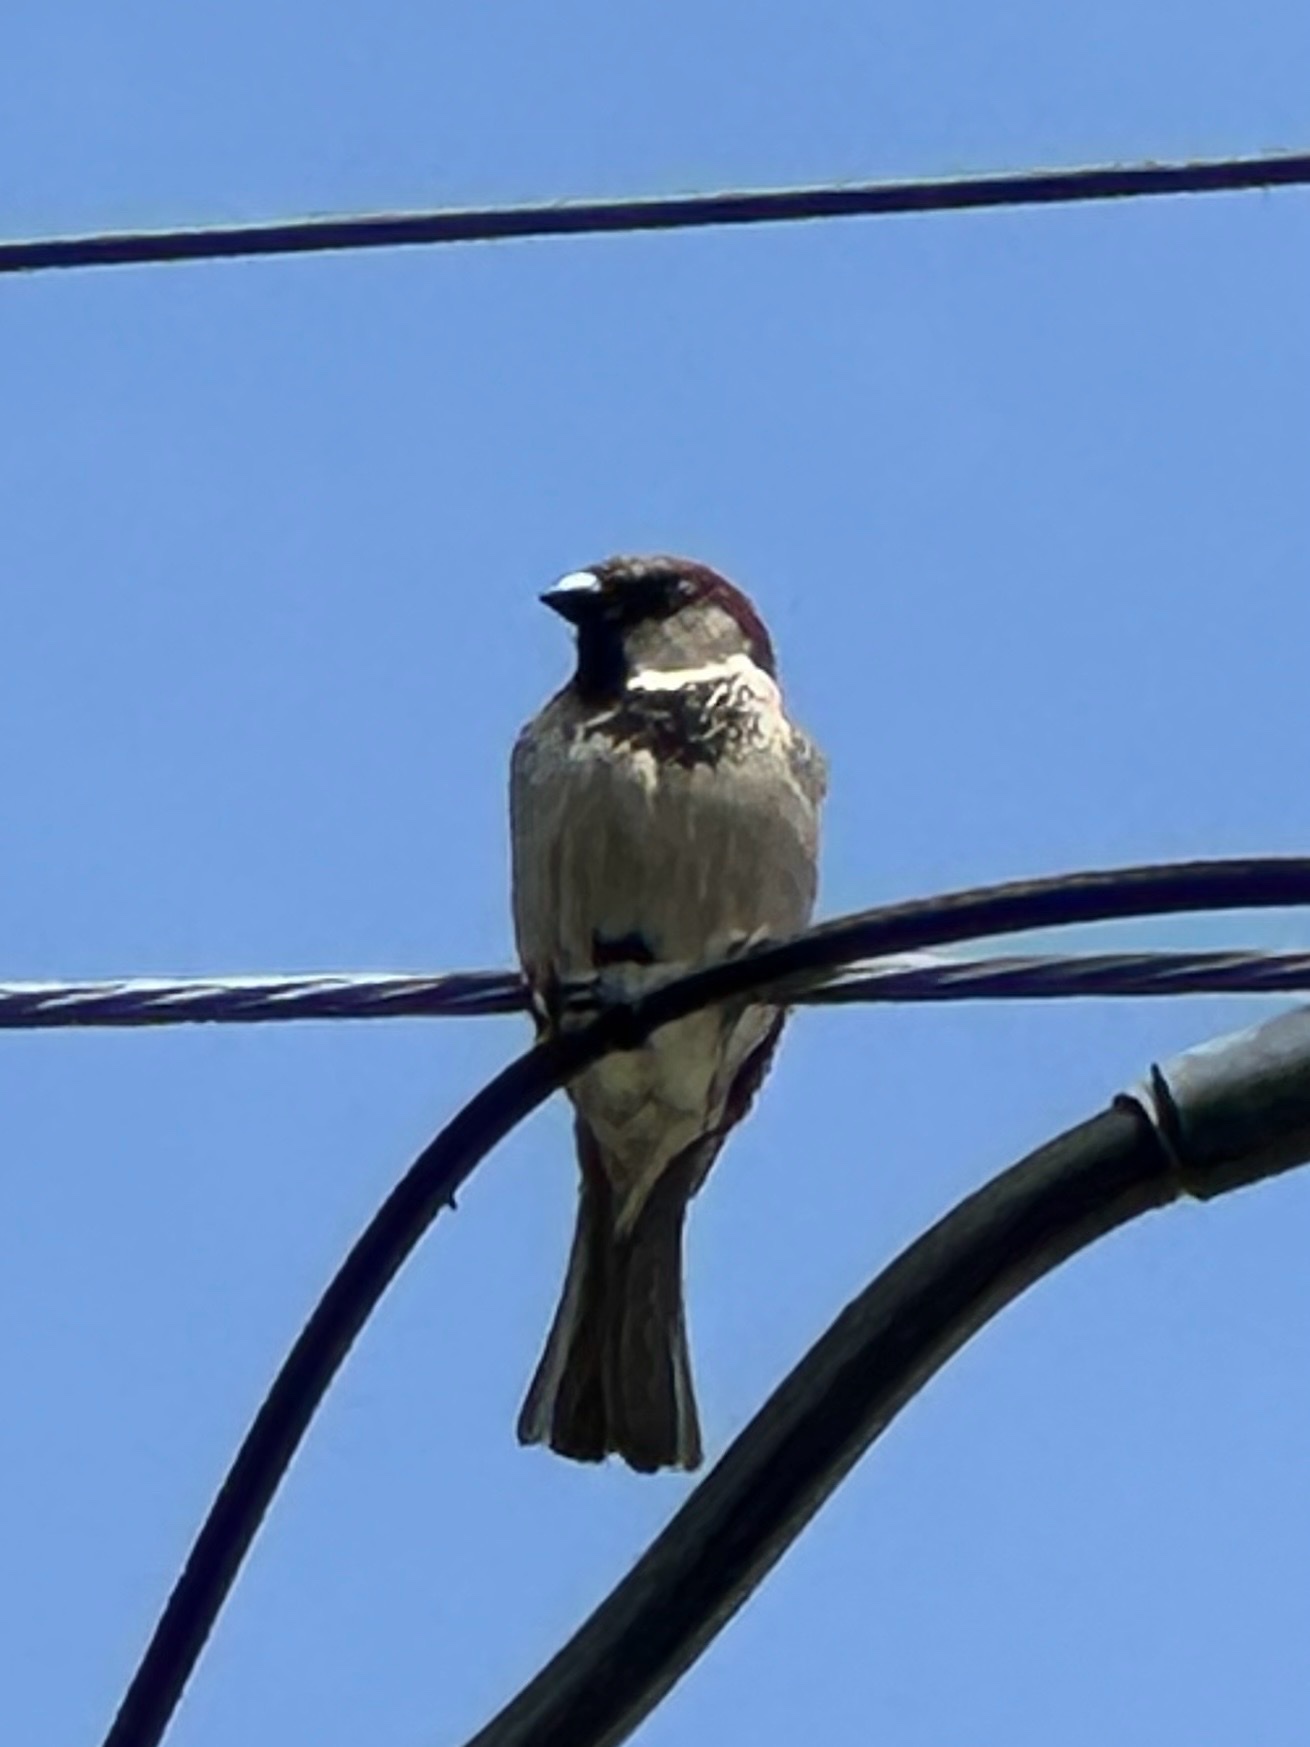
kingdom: Animalia
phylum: Chordata
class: Aves
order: Passeriformes
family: Passeridae
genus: Passer
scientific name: Passer domesticus
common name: House sparrow
